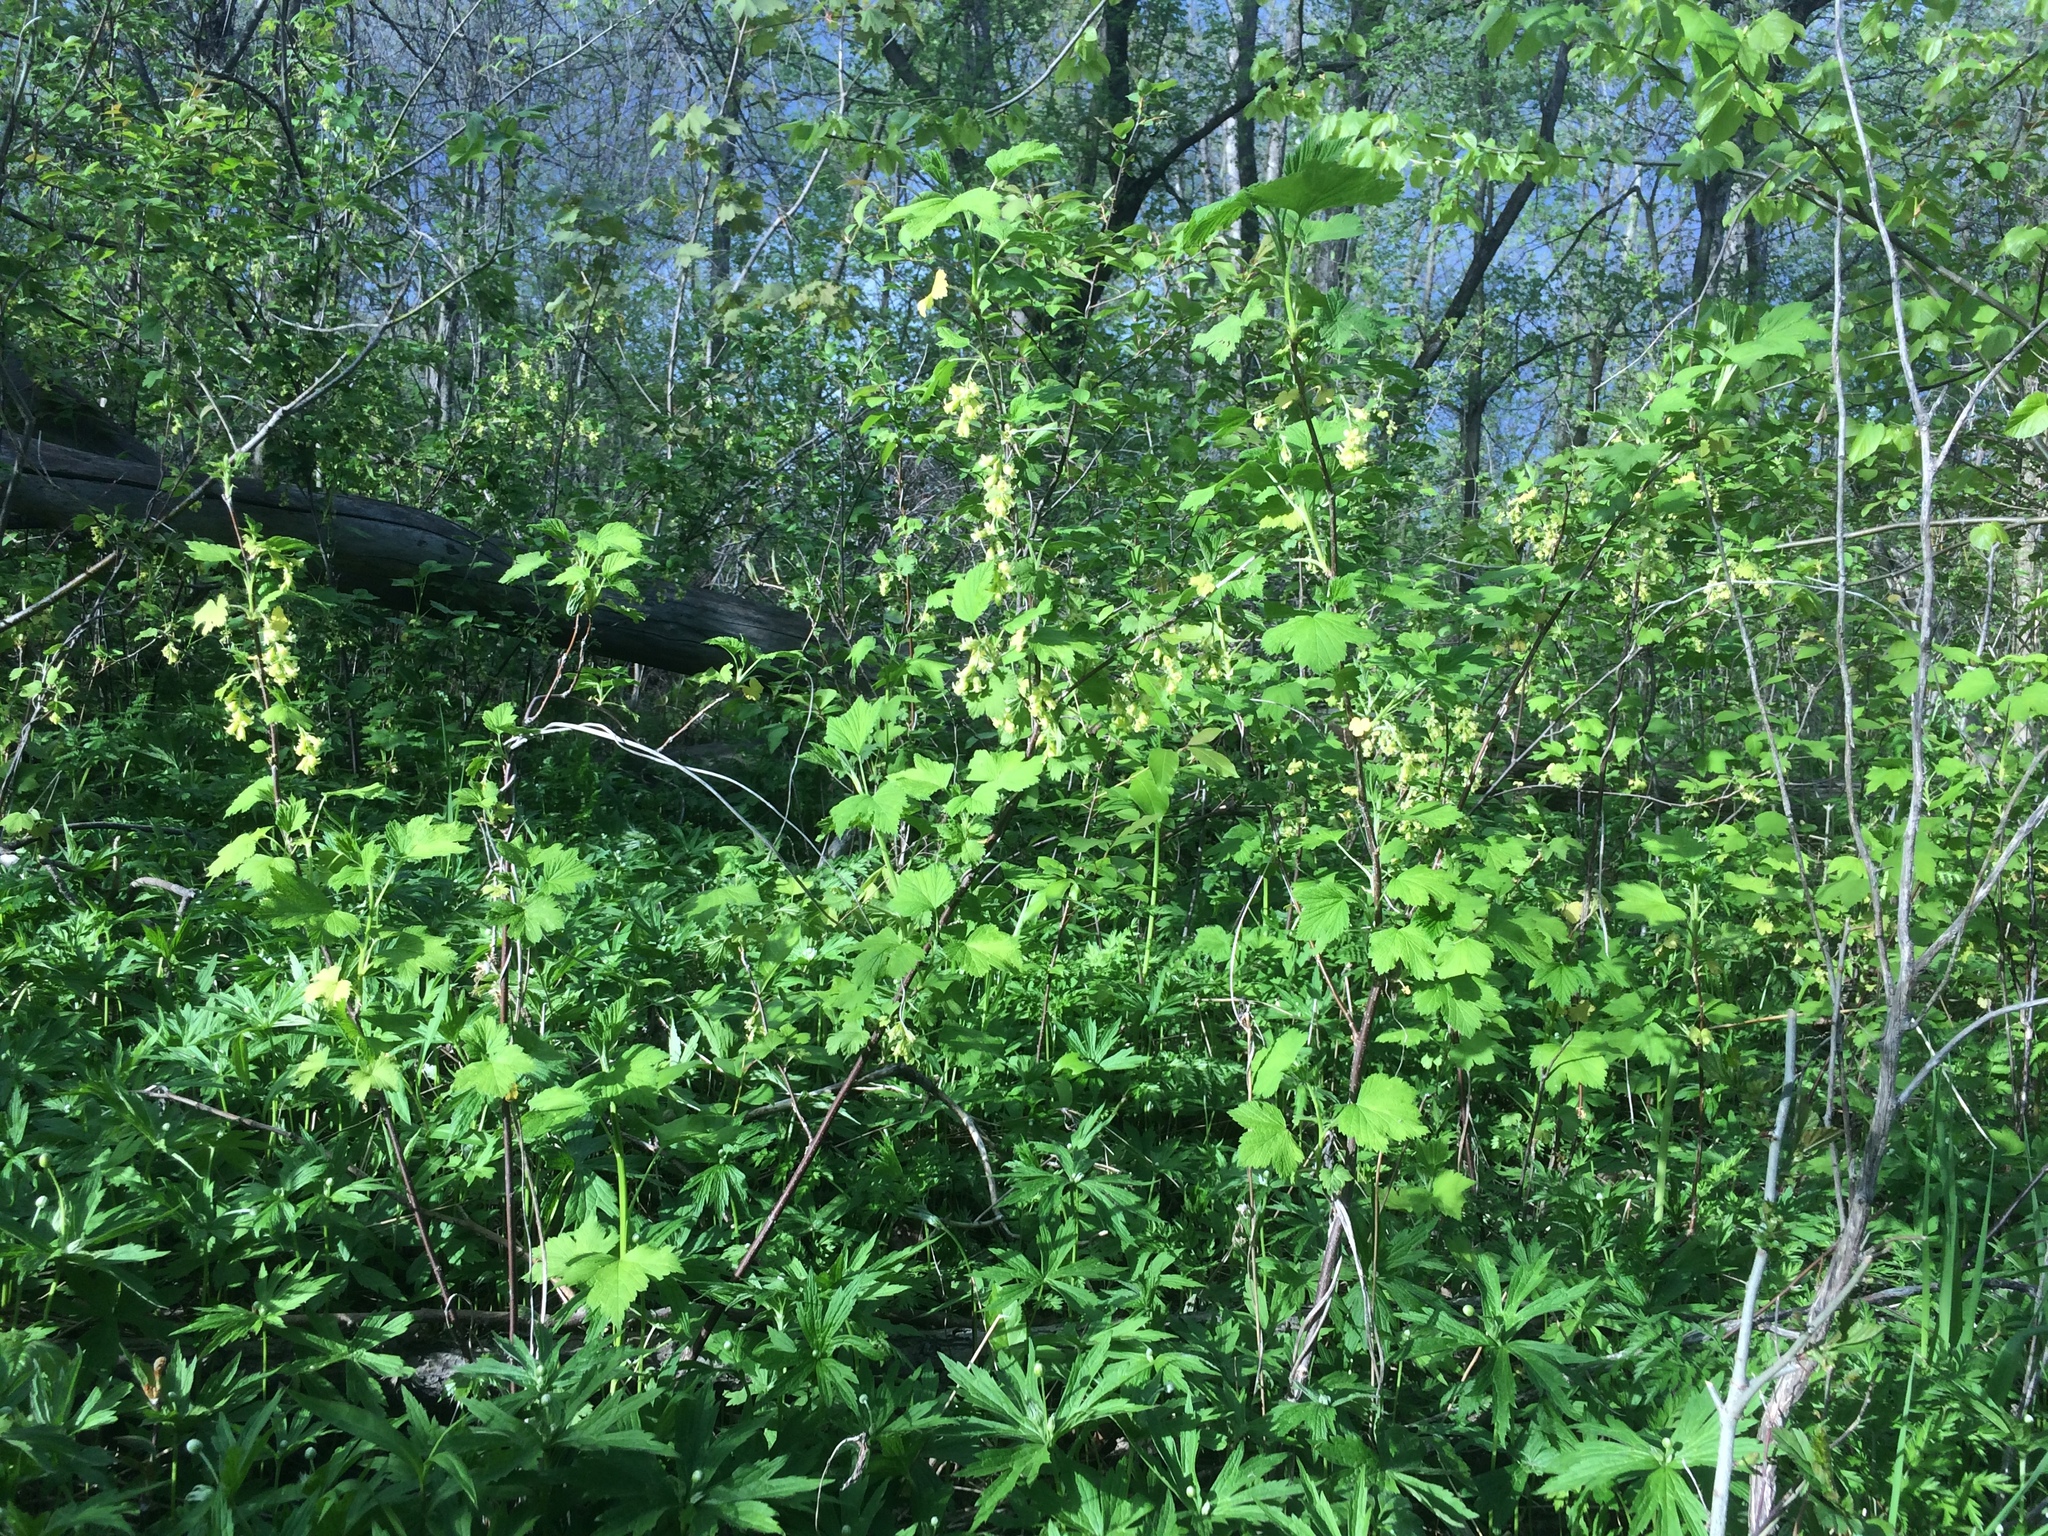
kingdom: Plantae
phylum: Tracheophyta
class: Magnoliopsida
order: Saxifragales
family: Grossulariaceae
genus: Ribes
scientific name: Ribes americanum
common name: American black currant
